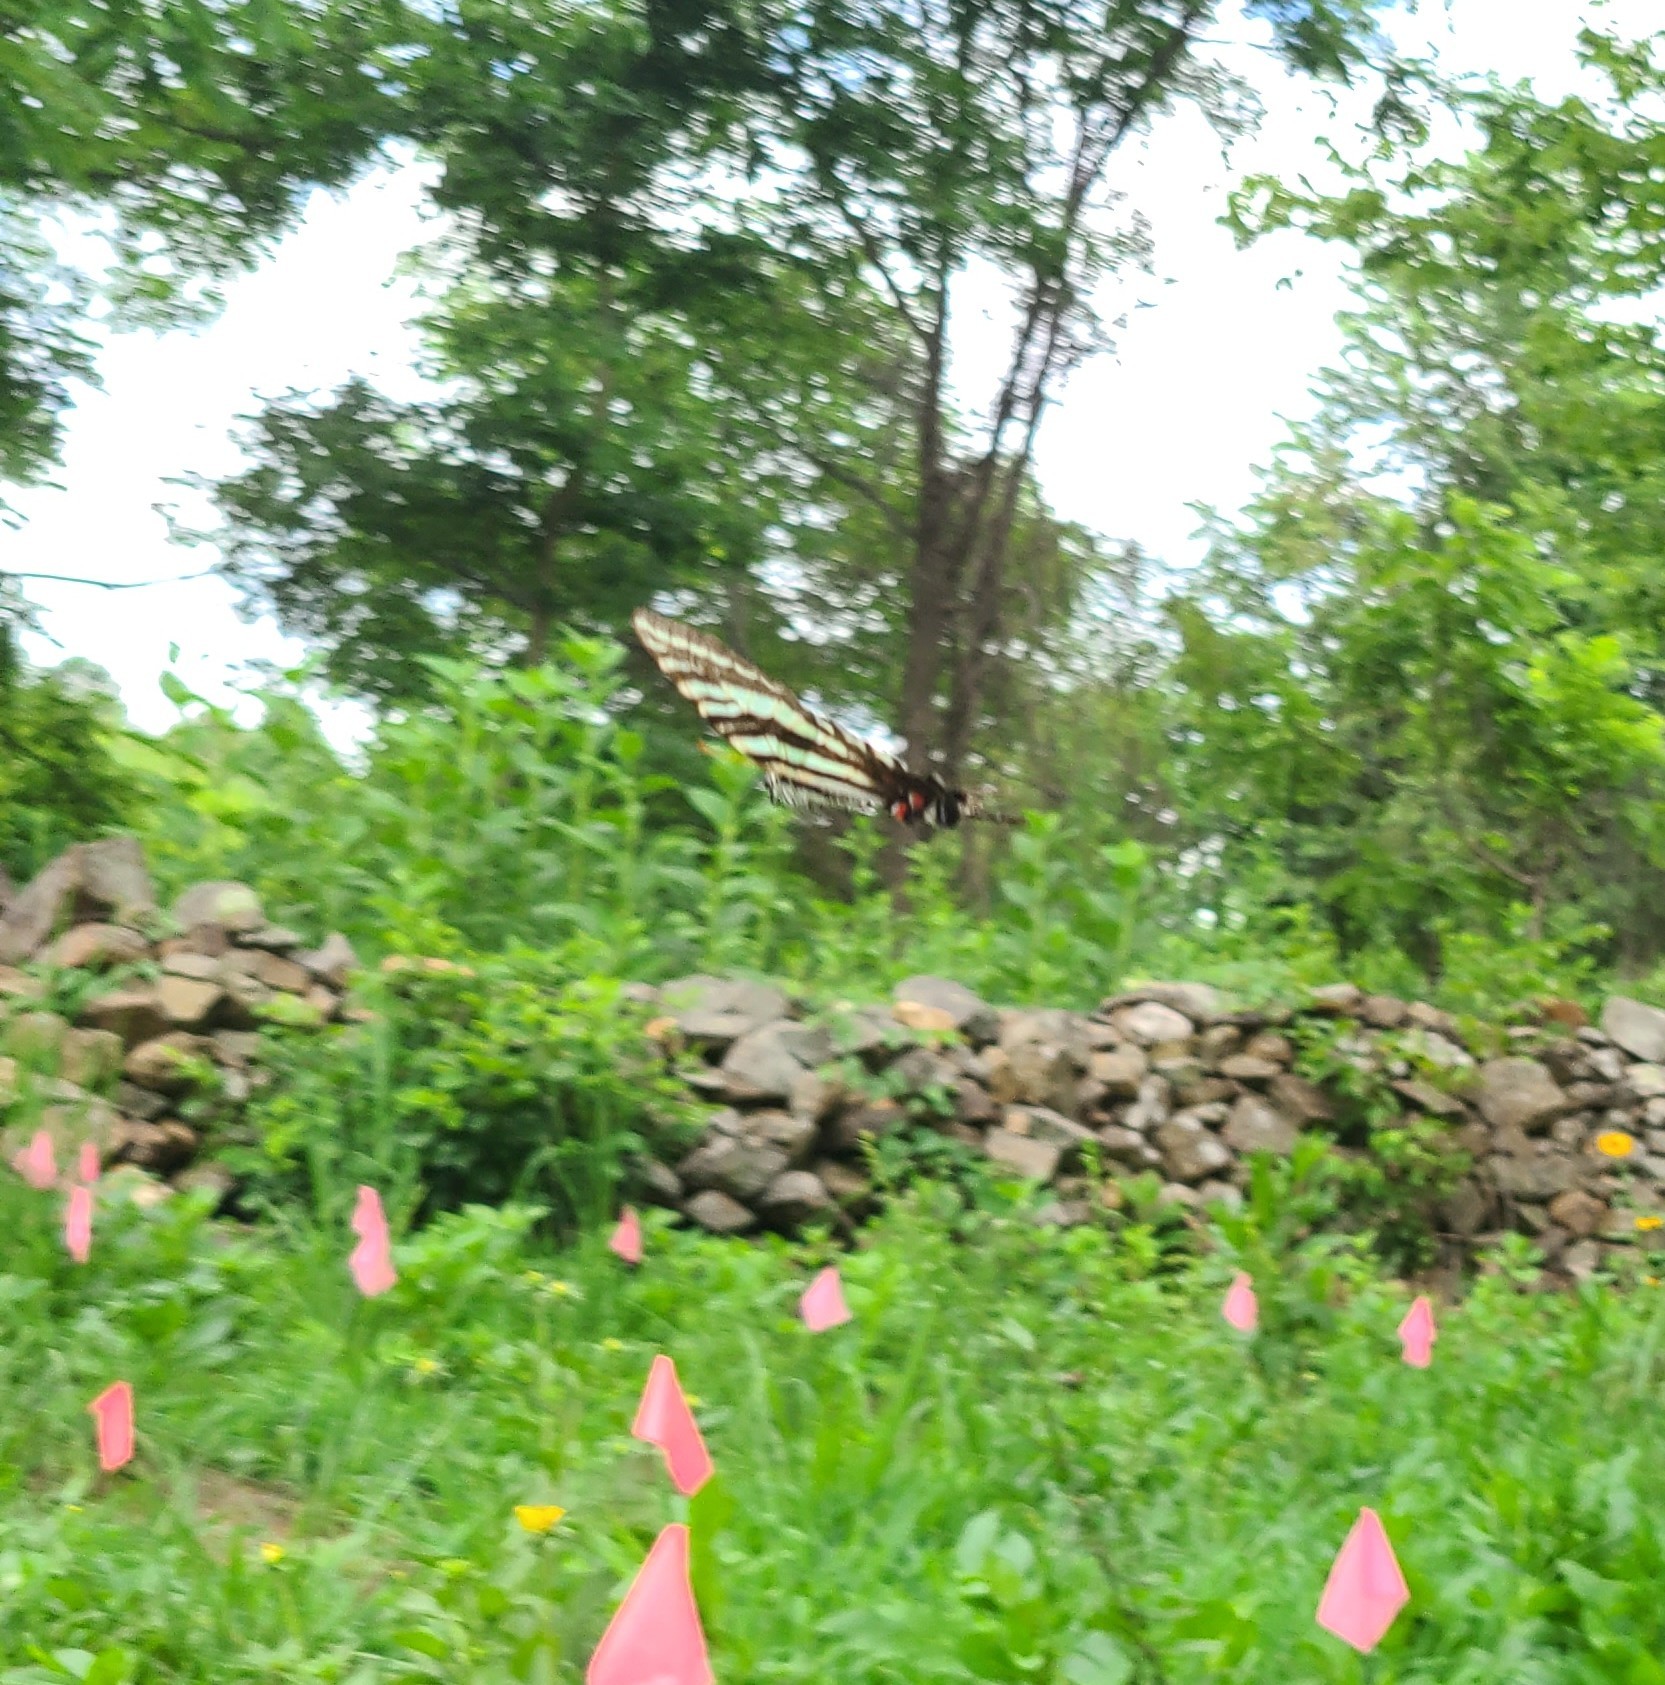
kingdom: Animalia
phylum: Arthropoda
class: Insecta
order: Lepidoptera
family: Papilionidae
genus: Protographium
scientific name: Protographium marcellus
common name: Zebra swallowtail
